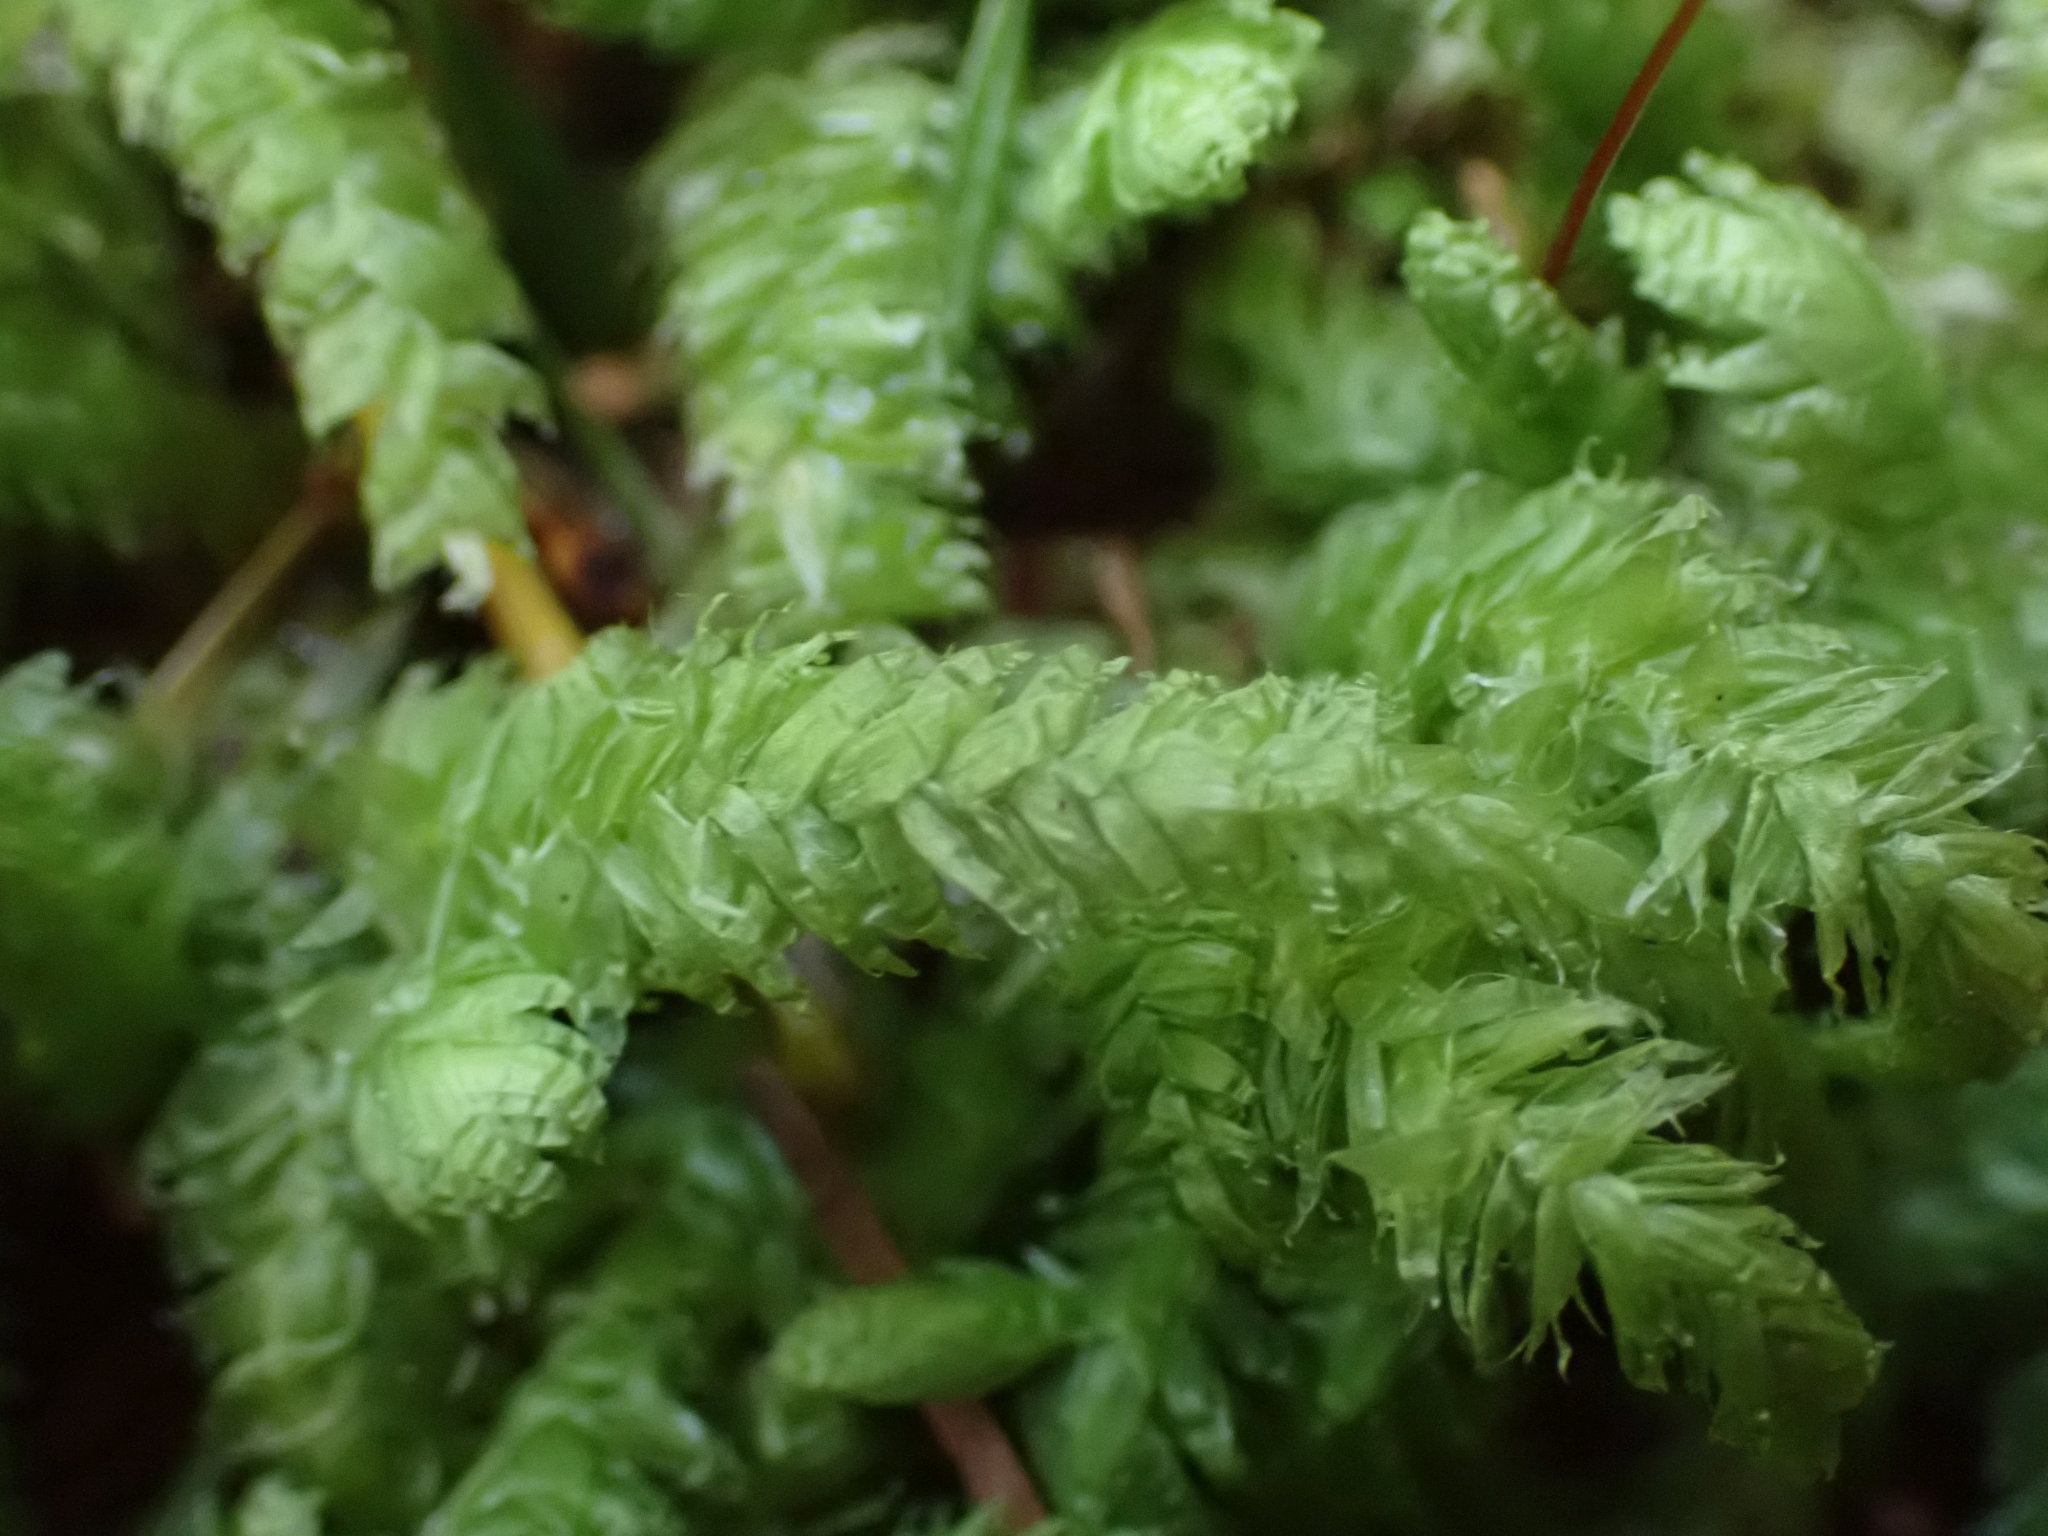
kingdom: Plantae
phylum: Bryophyta
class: Bryopsida
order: Hypnales
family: Plagiotheciaceae
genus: Plagiothecium
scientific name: Plagiothecium undulatum
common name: Waved silk-moss
